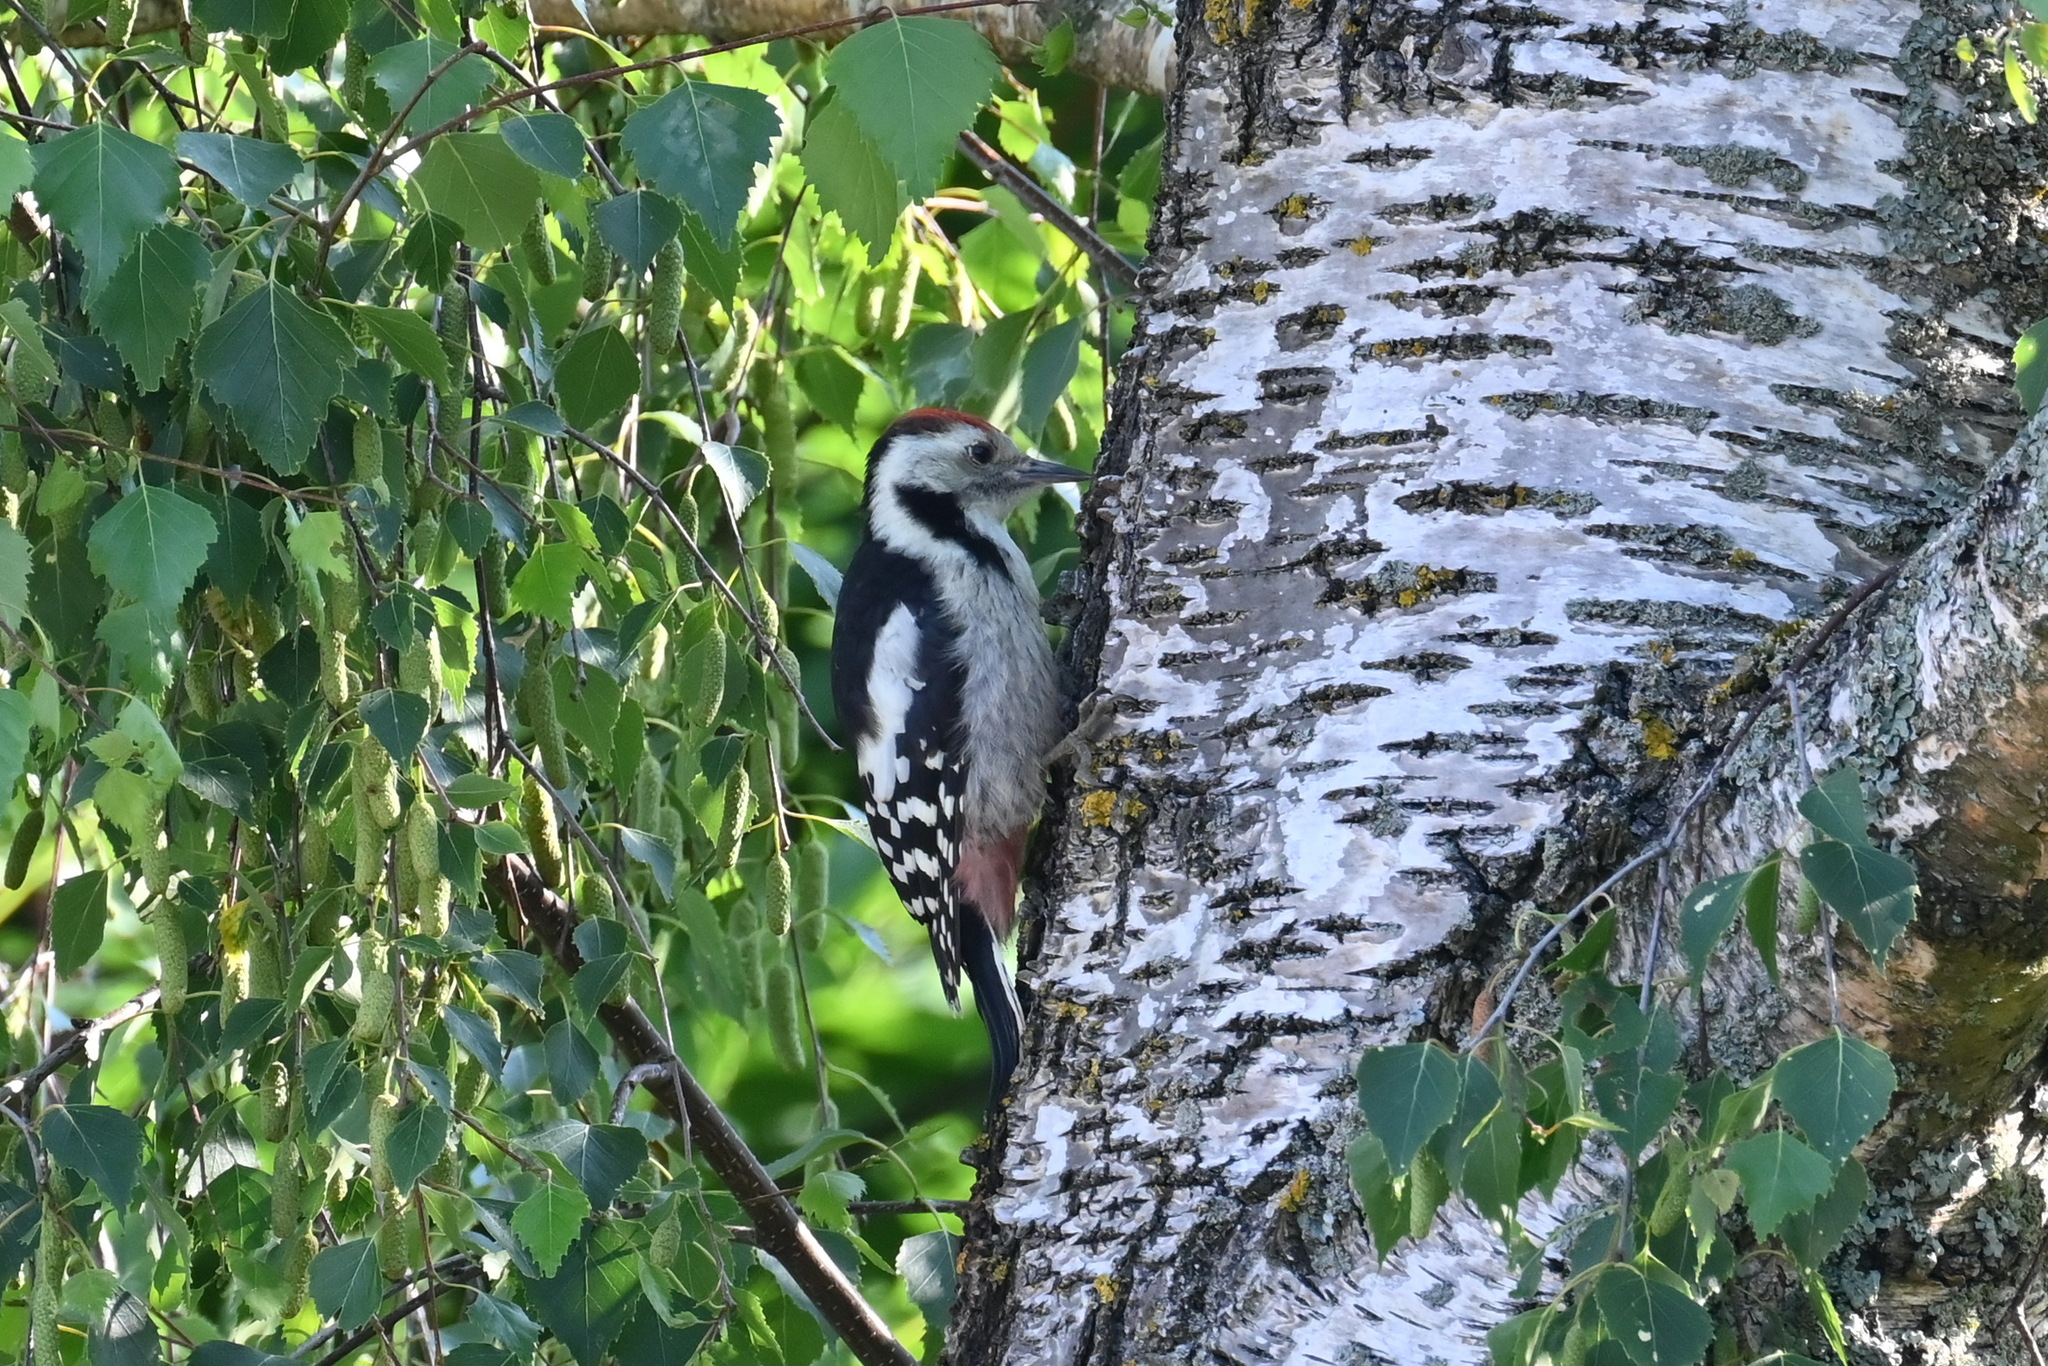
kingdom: Animalia
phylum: Chordata
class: Aves
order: Piciformes
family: Picidae
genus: Dendrocoptes
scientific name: Dendrocoptes medius
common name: Middle spotted woodpecker
